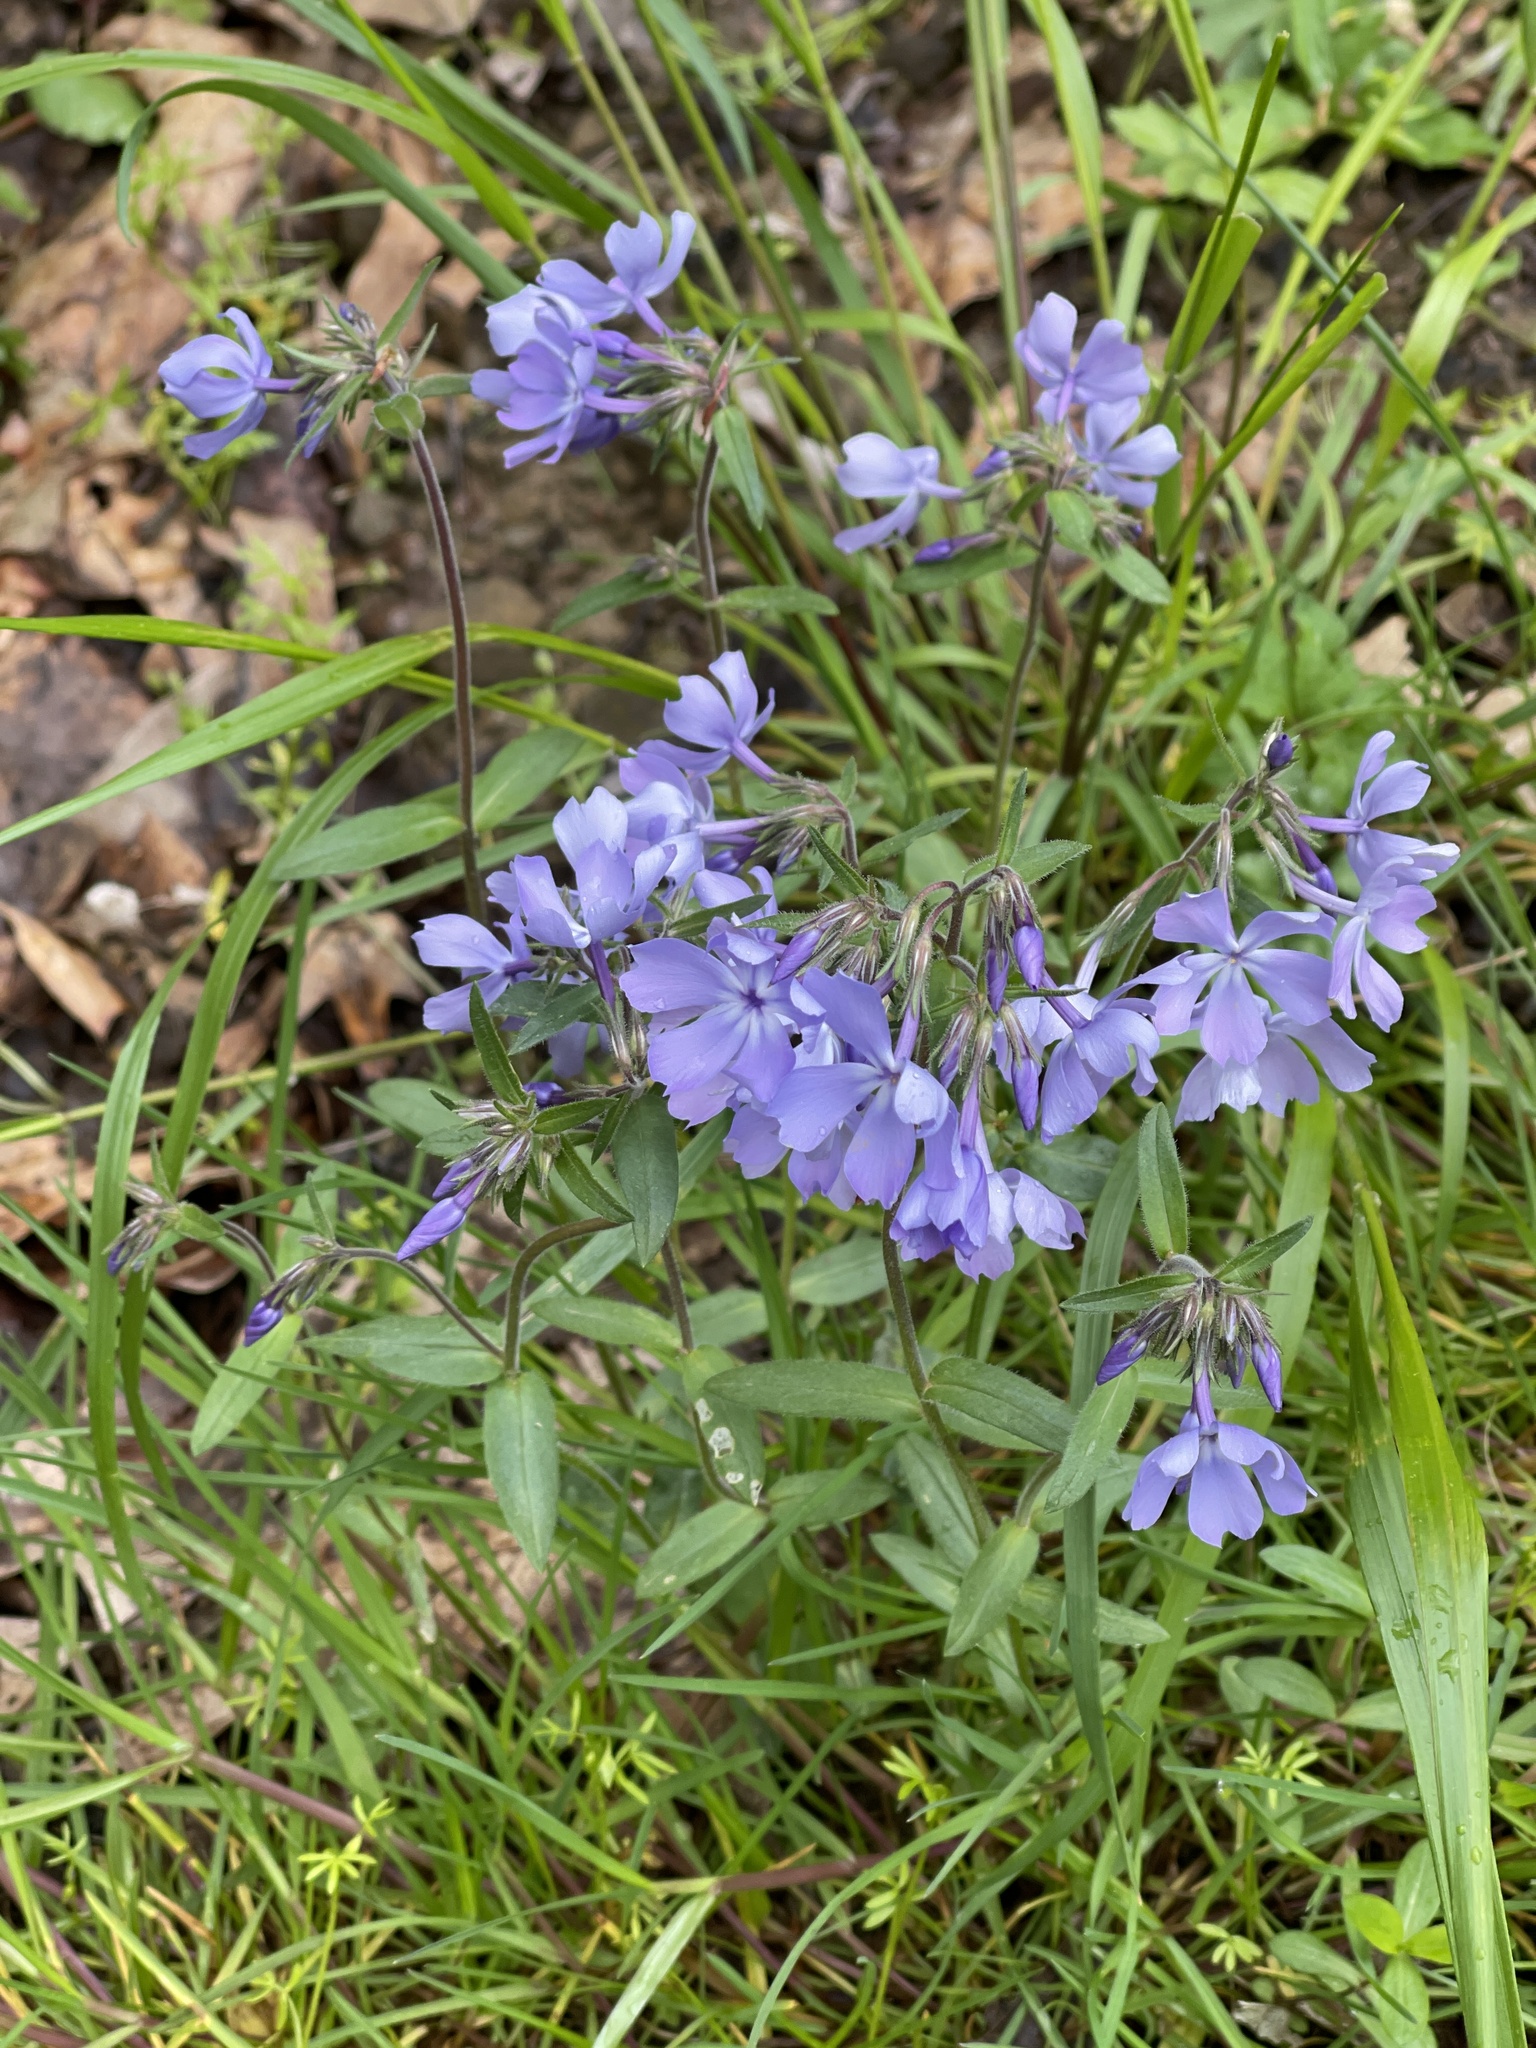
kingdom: Plantae
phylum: Tracheophyta
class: Magnoliopsida
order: Ericales
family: Polemoniaceae
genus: Phlox
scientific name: Phlox divaricata
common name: Blue phlox
